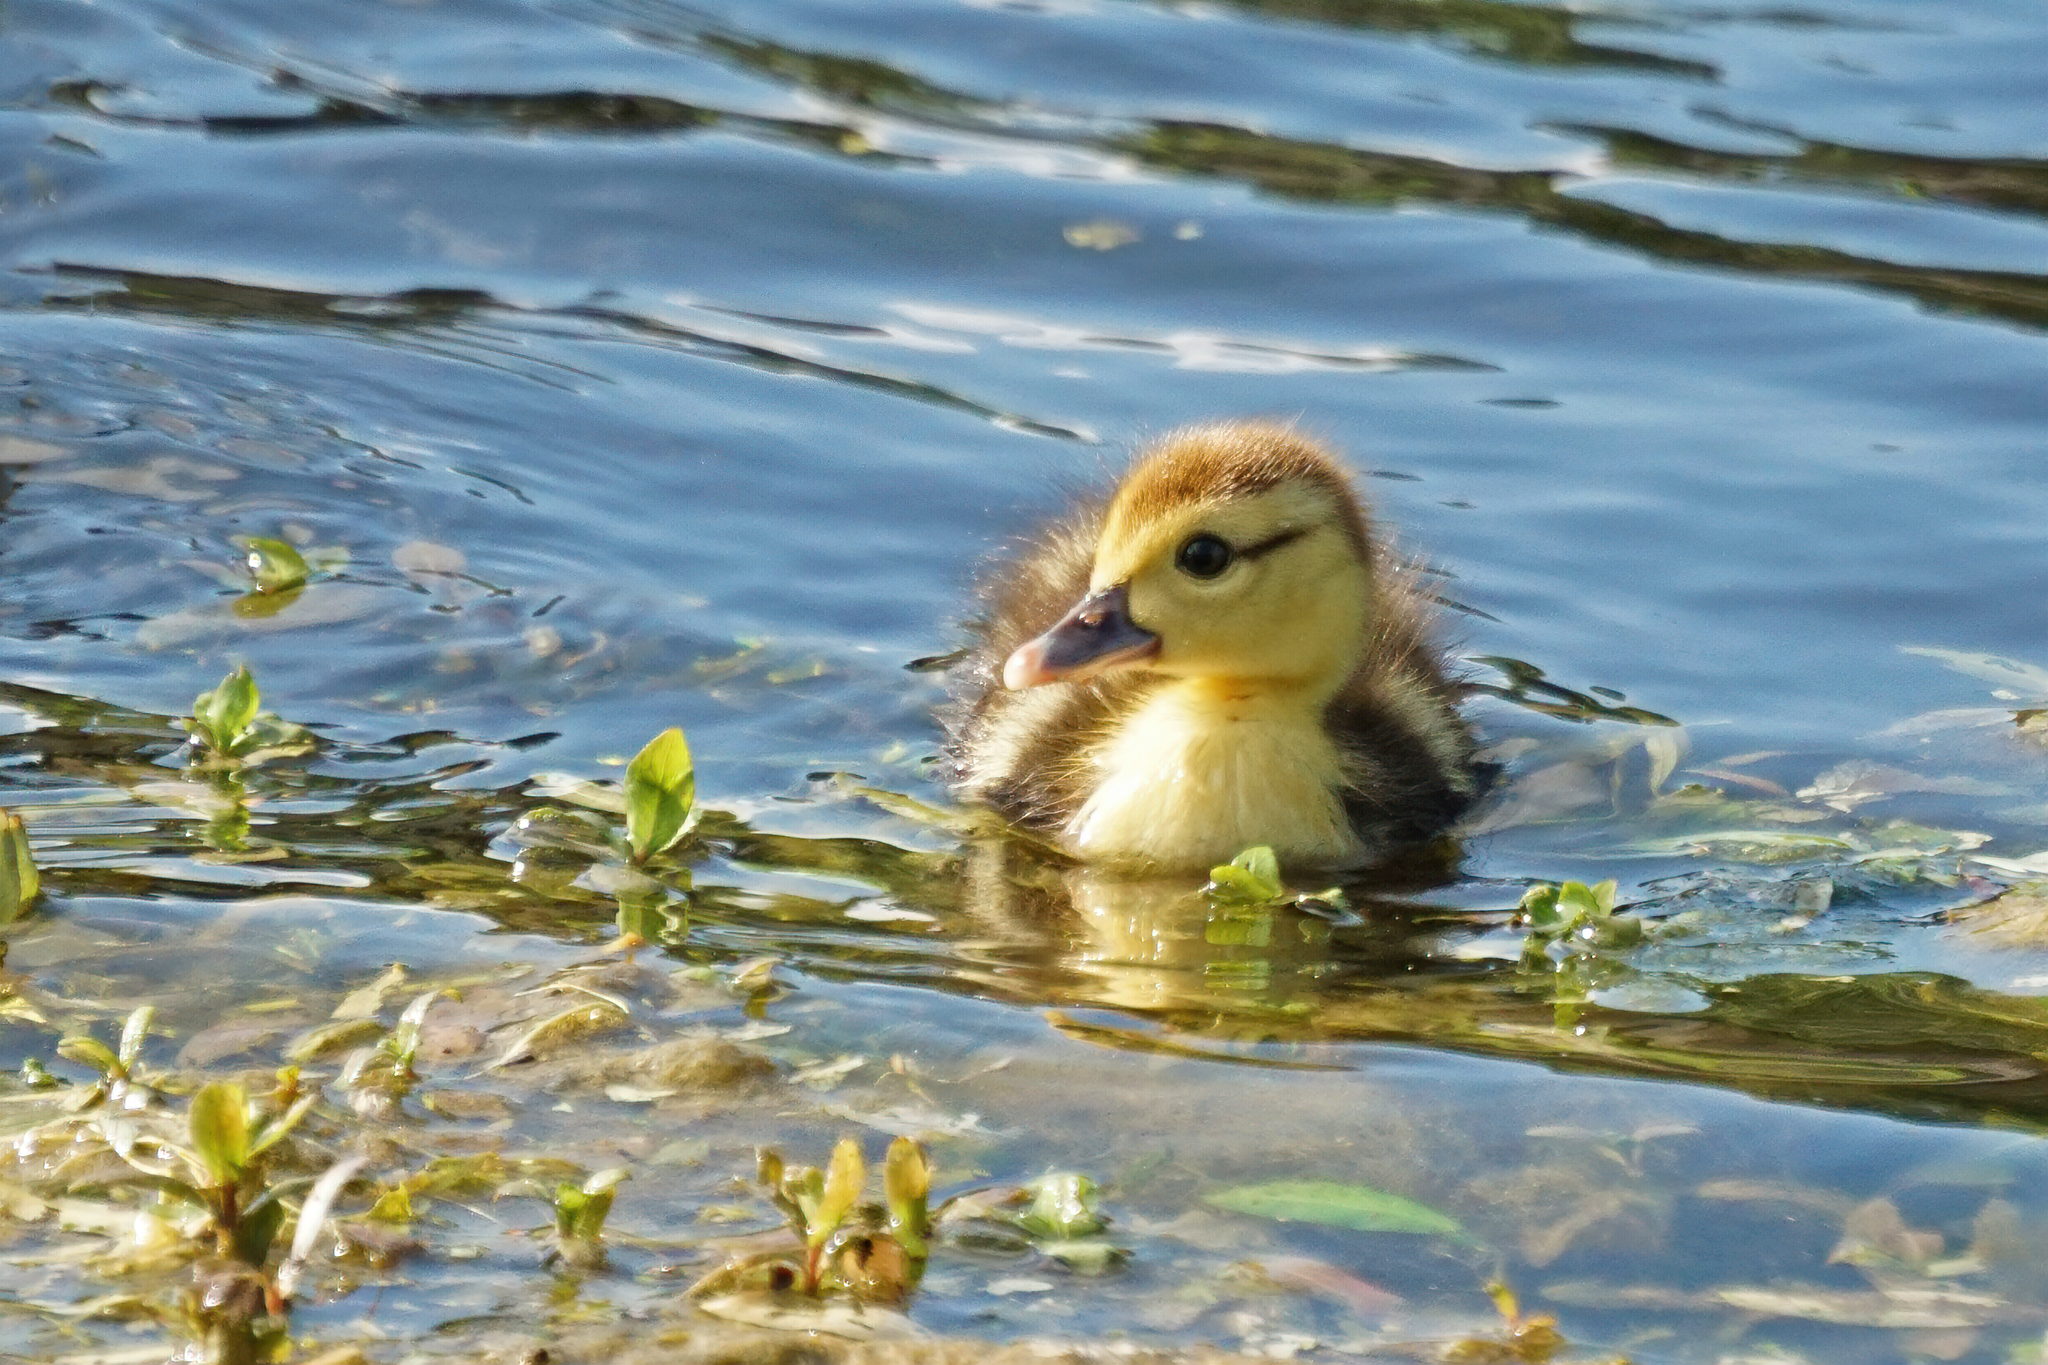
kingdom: Animalia
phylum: Chordata
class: Aves
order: Anseriformes
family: Anatidae
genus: Cairina
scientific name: Cairina moschata
